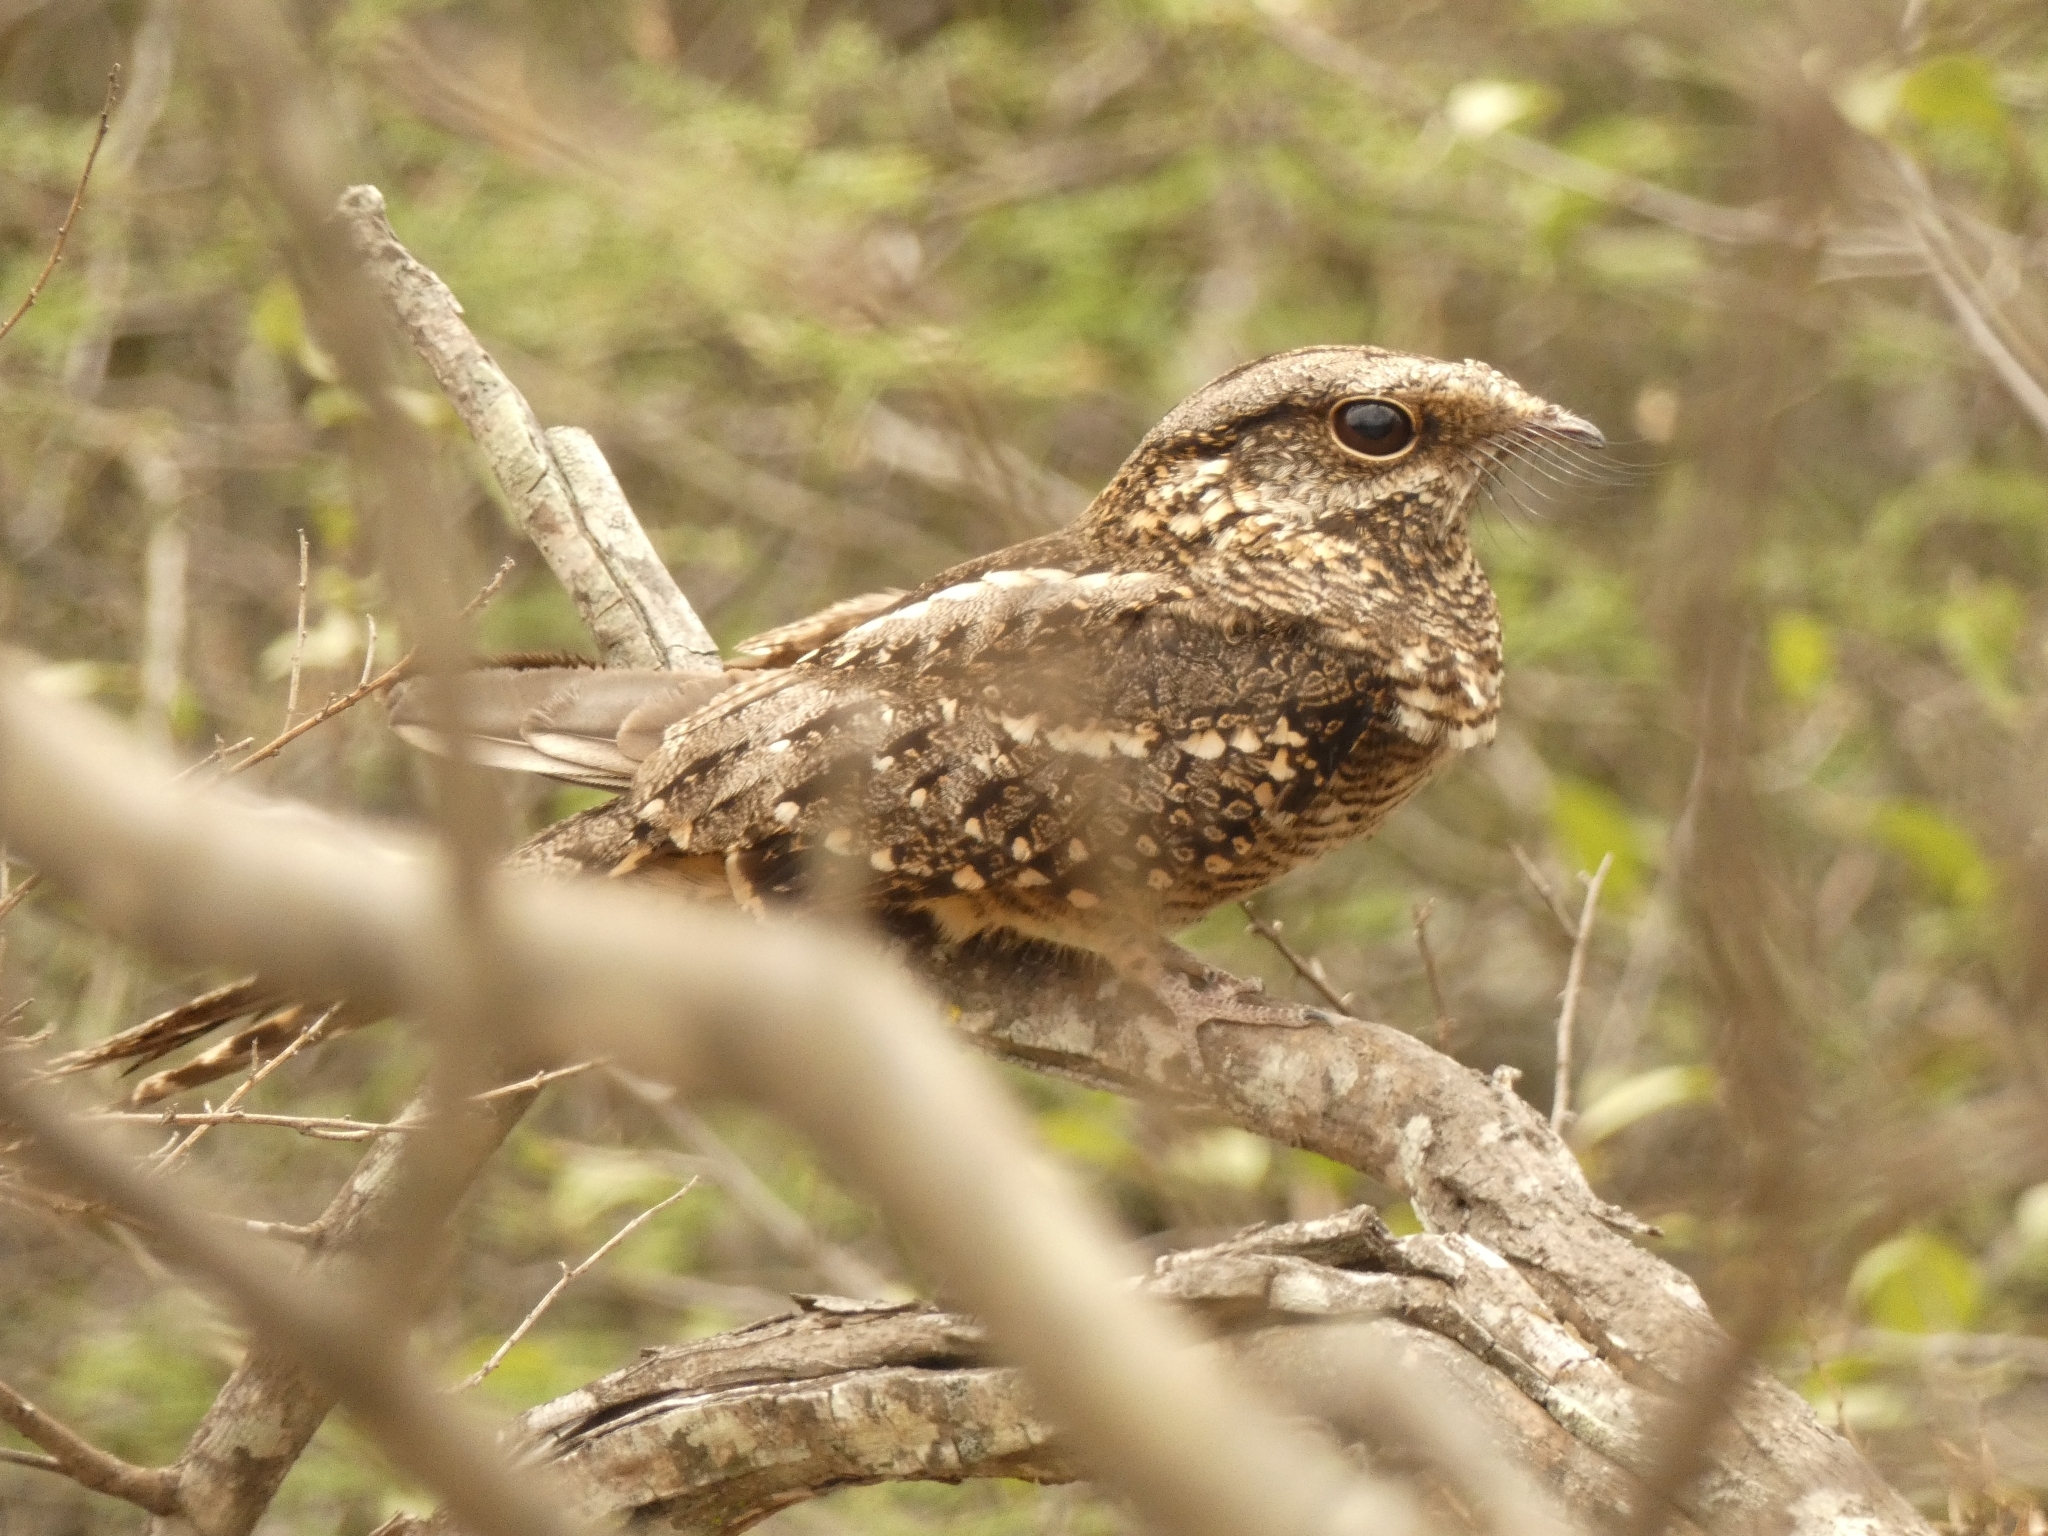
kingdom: Animalia
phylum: Chordata
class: Aves
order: Caprimulgiformes
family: Caprimulgidae
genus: Hydropsalis
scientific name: Hydropsalis torquata
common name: Scissor-tailed nightjar
